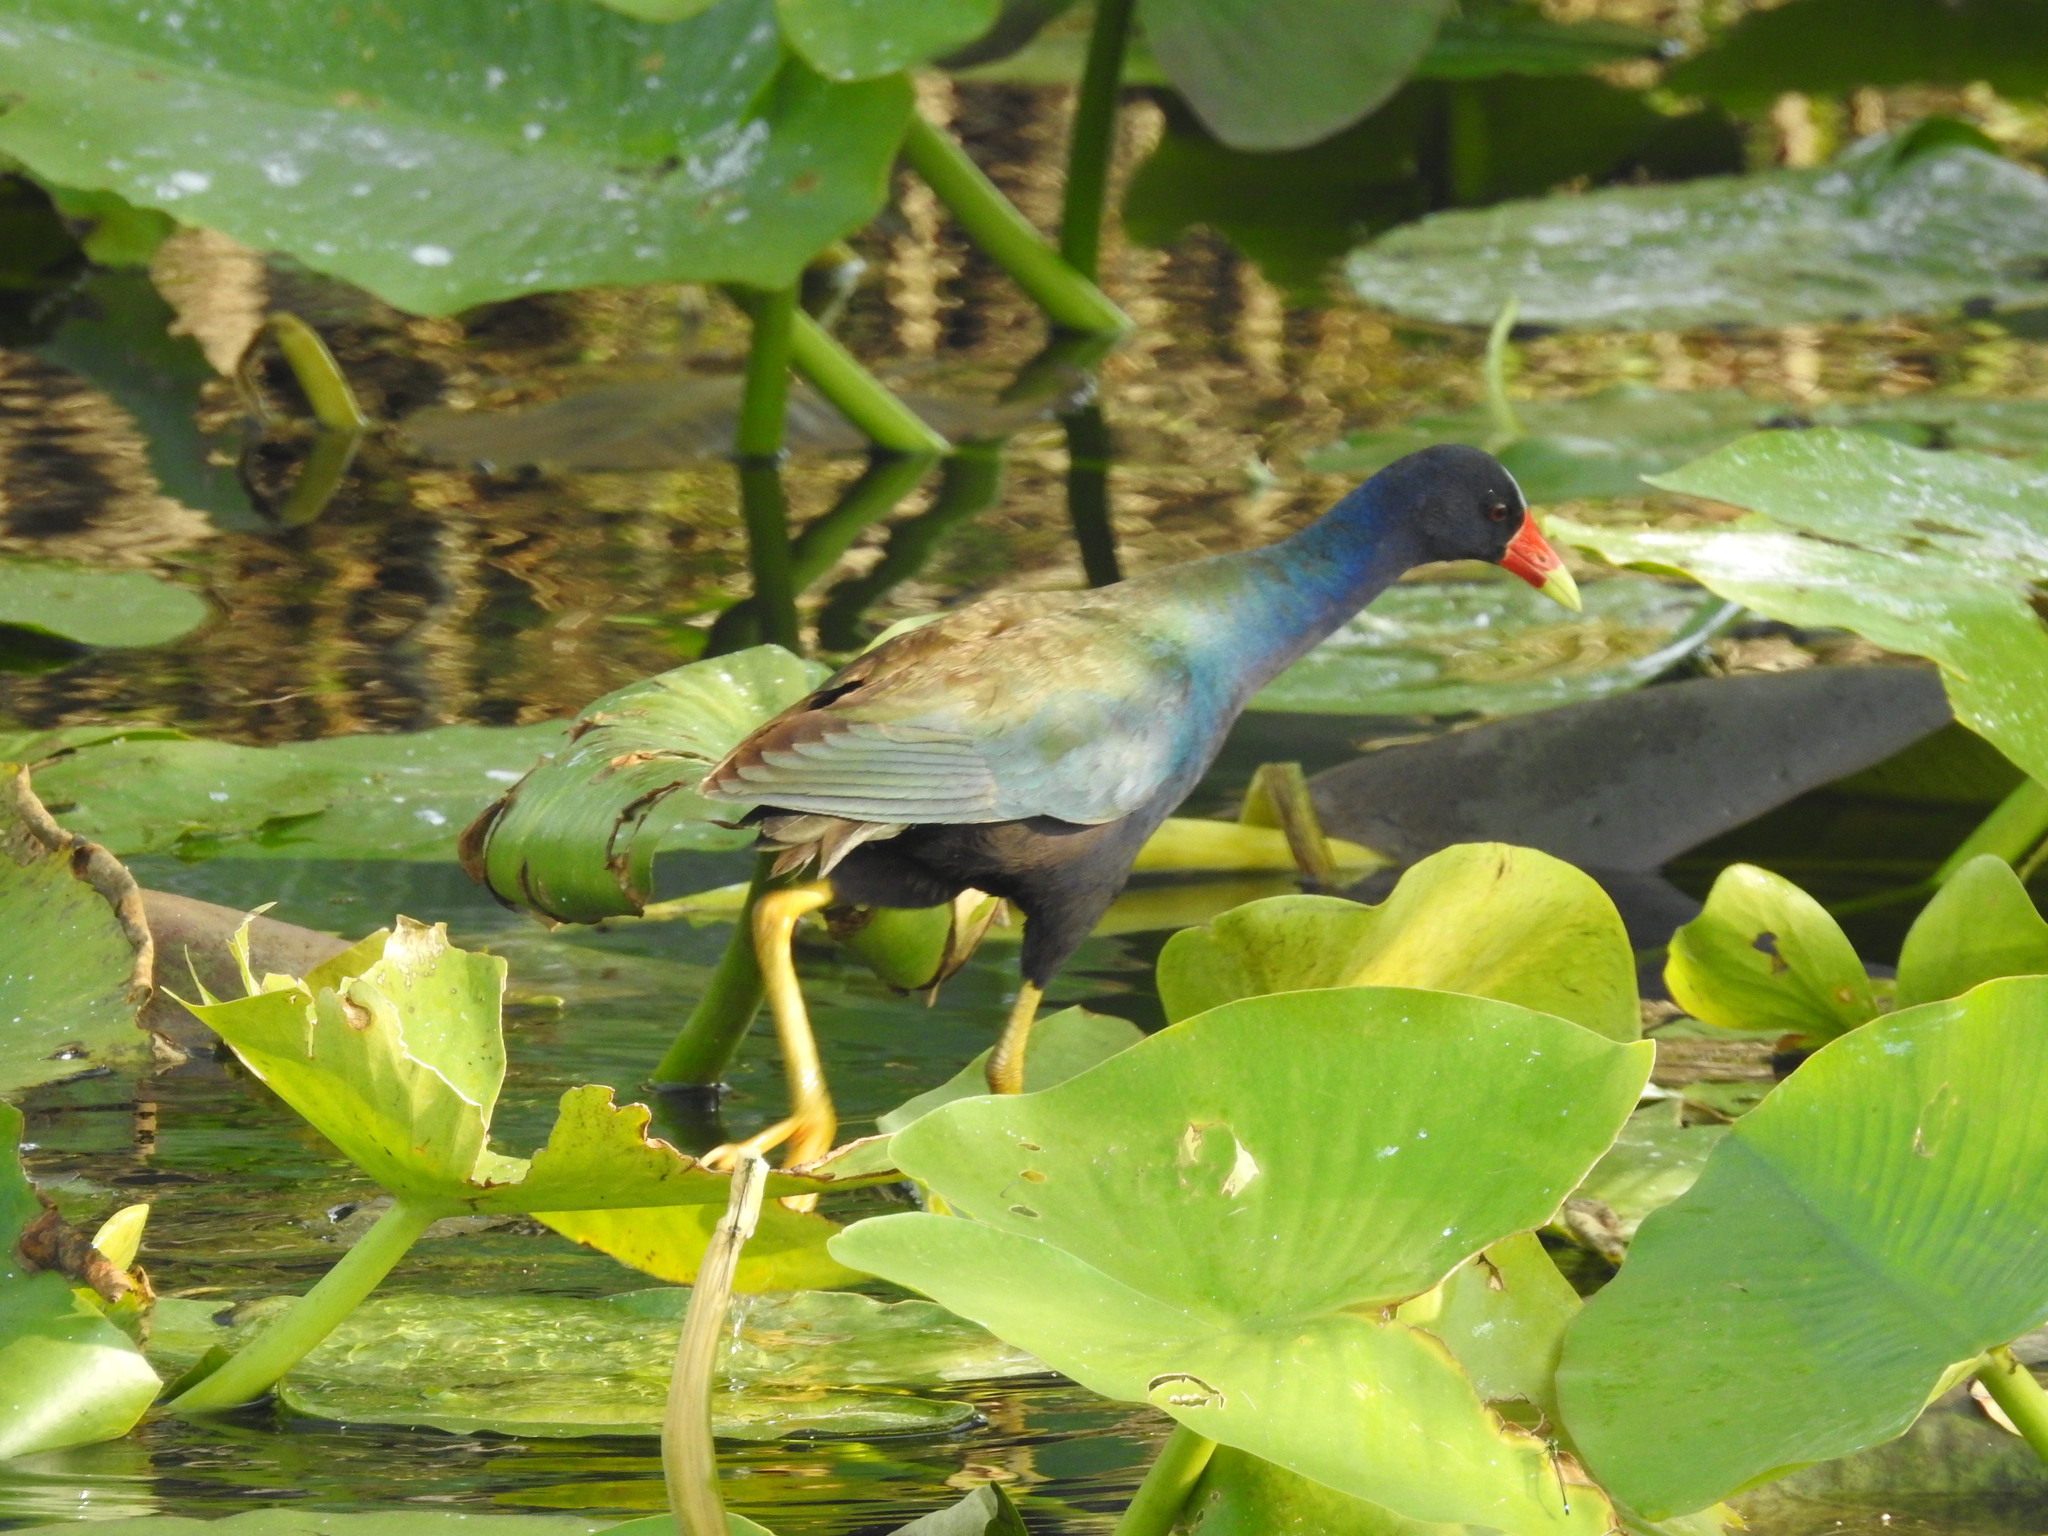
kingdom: Animalia
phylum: Chordata
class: Aves
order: Gruiformes
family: Rallidae
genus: Porphyrio
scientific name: Porphyrio martinica
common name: Purple gallinule
